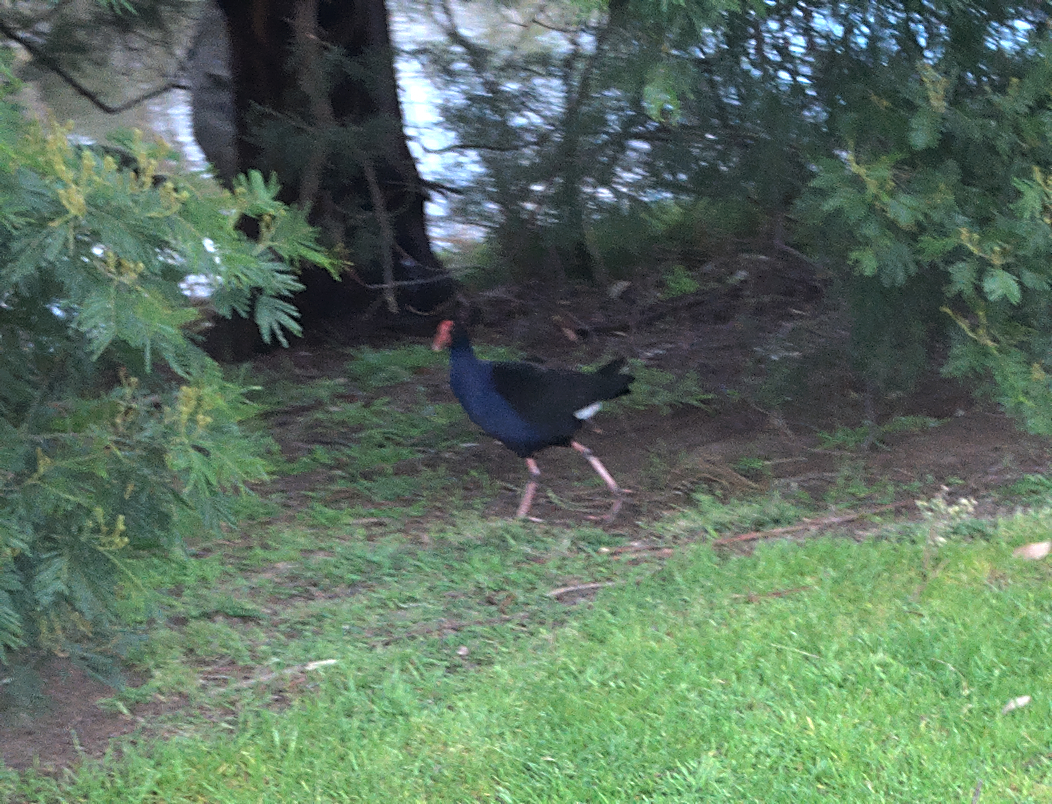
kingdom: Animalia
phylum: Chordata
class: Aves
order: Gruiformes
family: Rallidae
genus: Porphyrio
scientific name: Porphyrio melanotus
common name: Australasian swamphen
